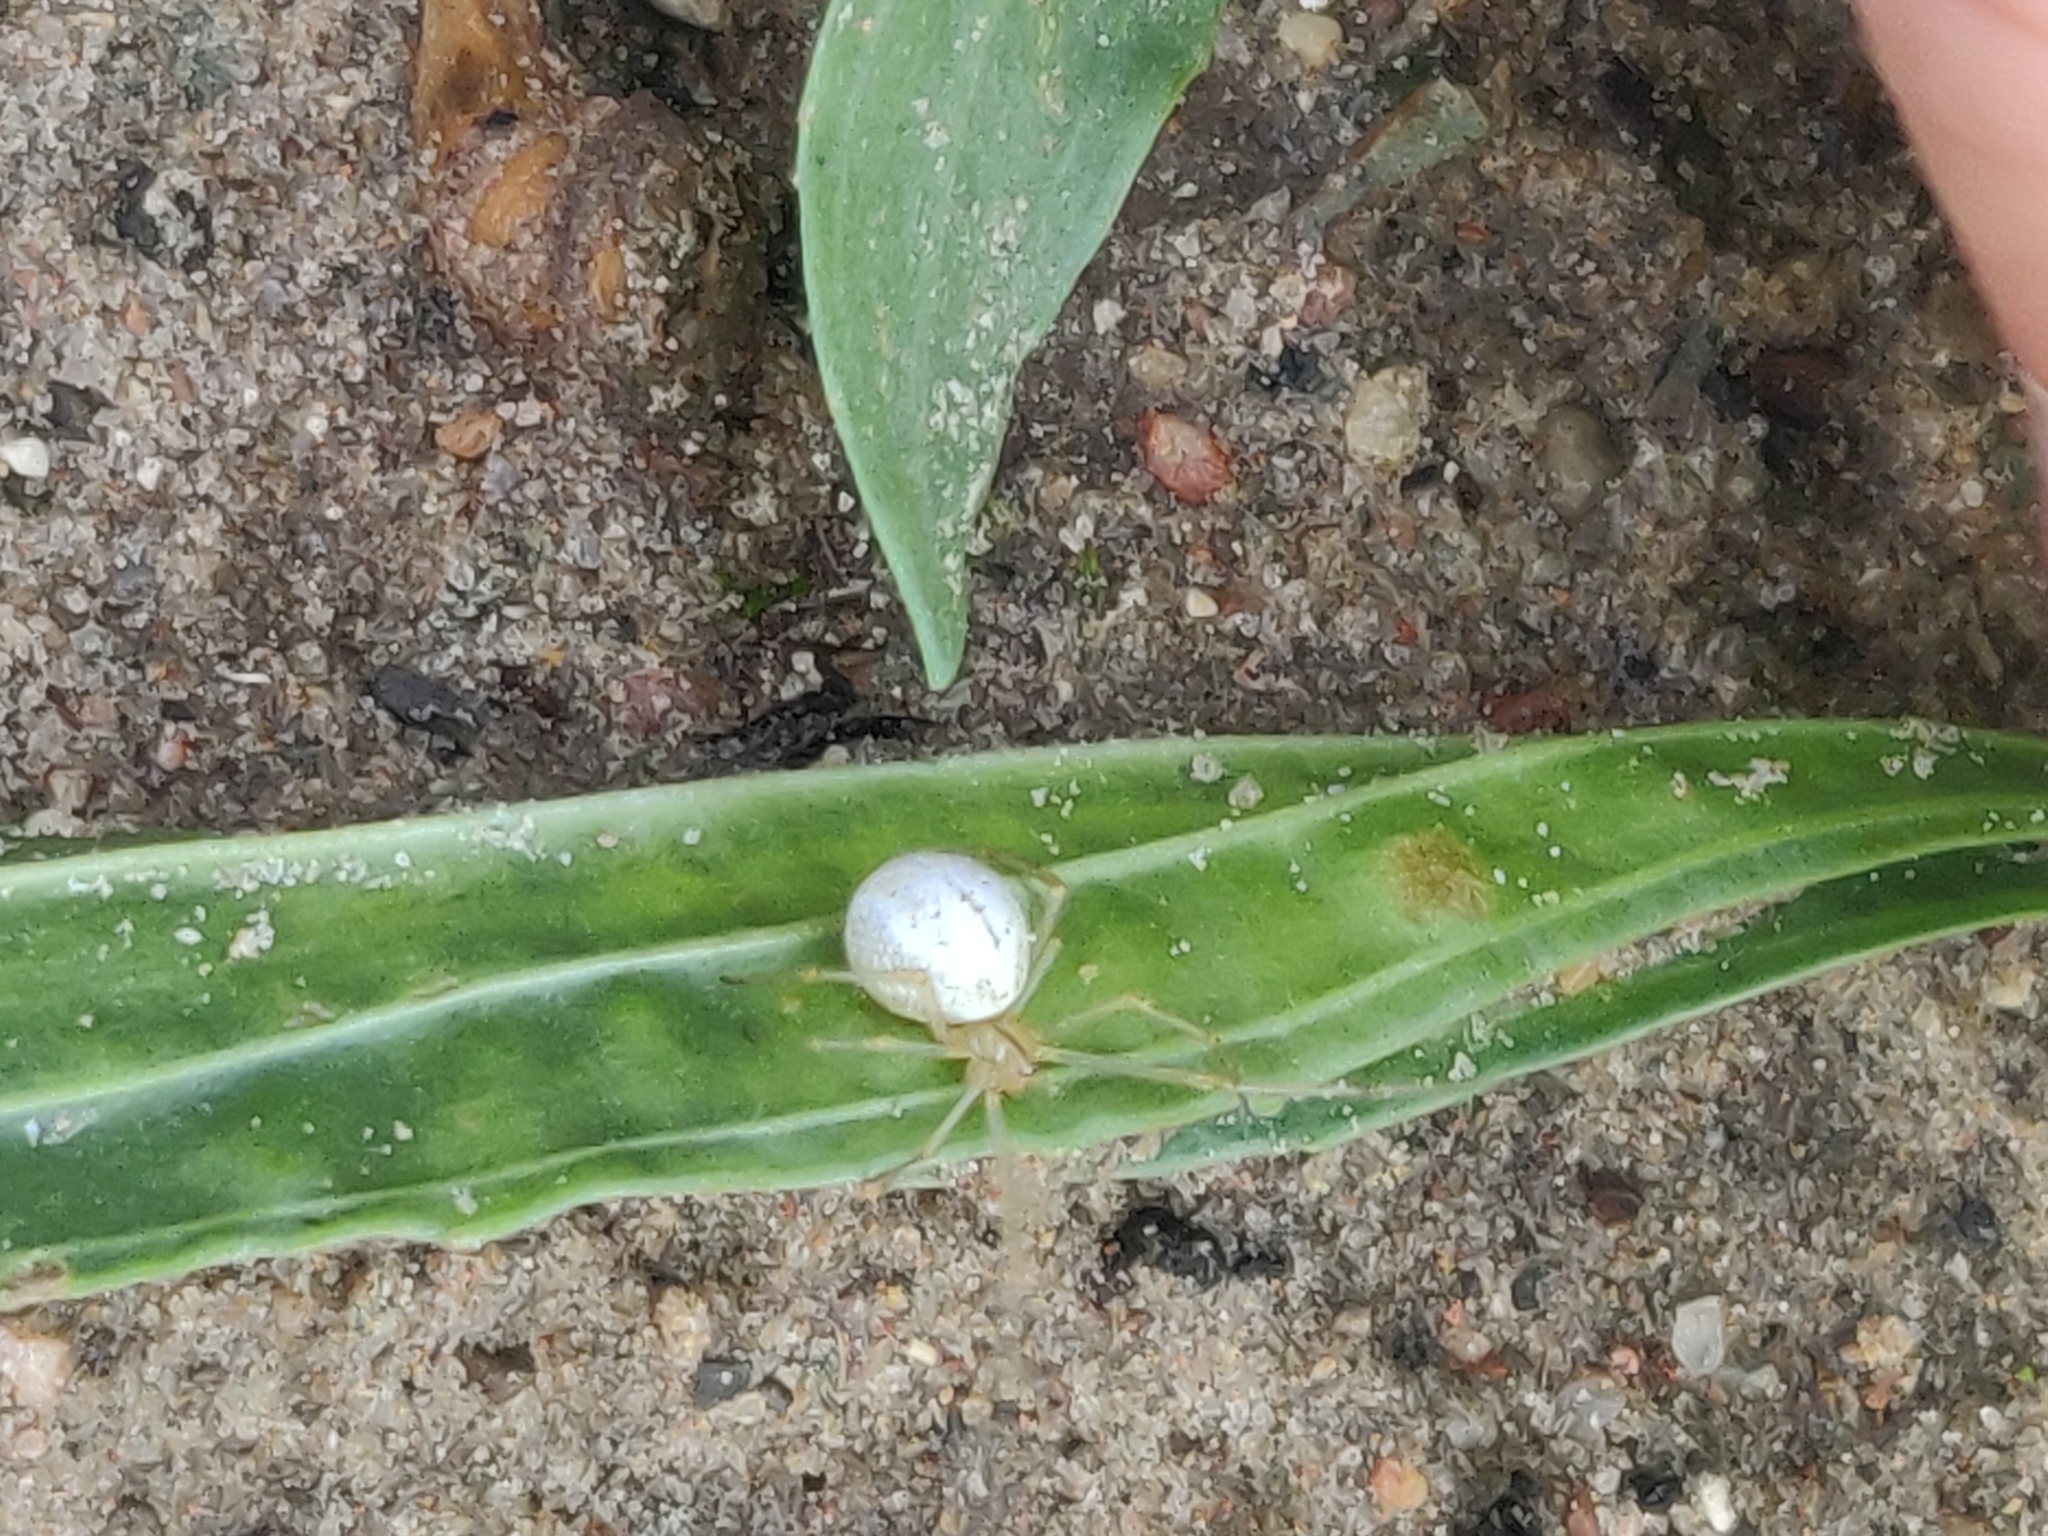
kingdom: Animalia
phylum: Arthropoda
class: Arachnida
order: Araneae
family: Theridiidae
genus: Enoplognatha
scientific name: Enoplognatha
